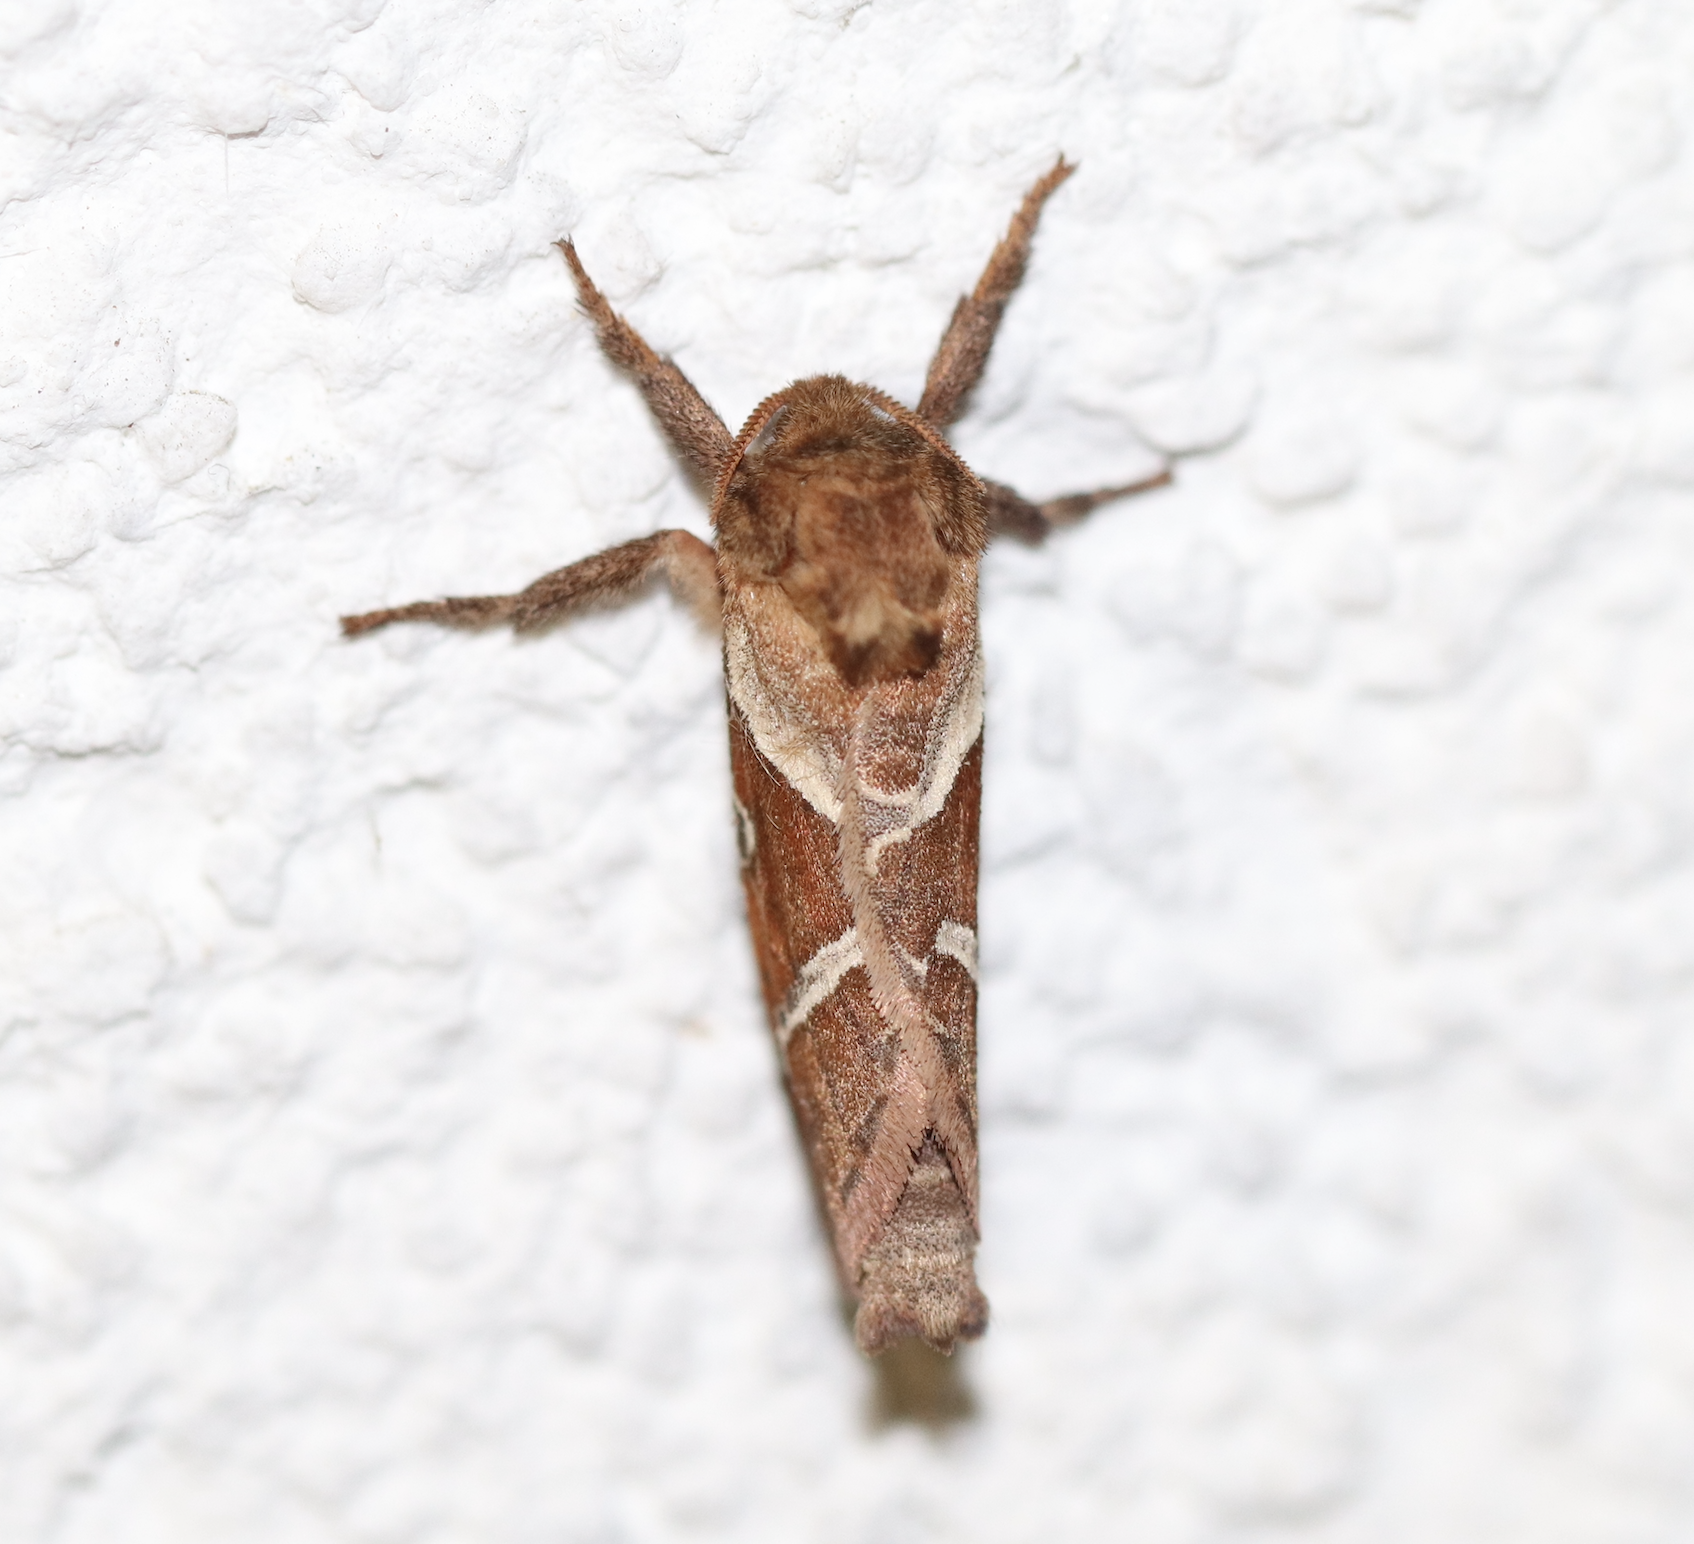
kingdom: Animalia
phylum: Arthropoda
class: Insecta
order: Lepidoptera
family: Hepialidae
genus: Triodia
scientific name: Triodia sylvina
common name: Orange swift
